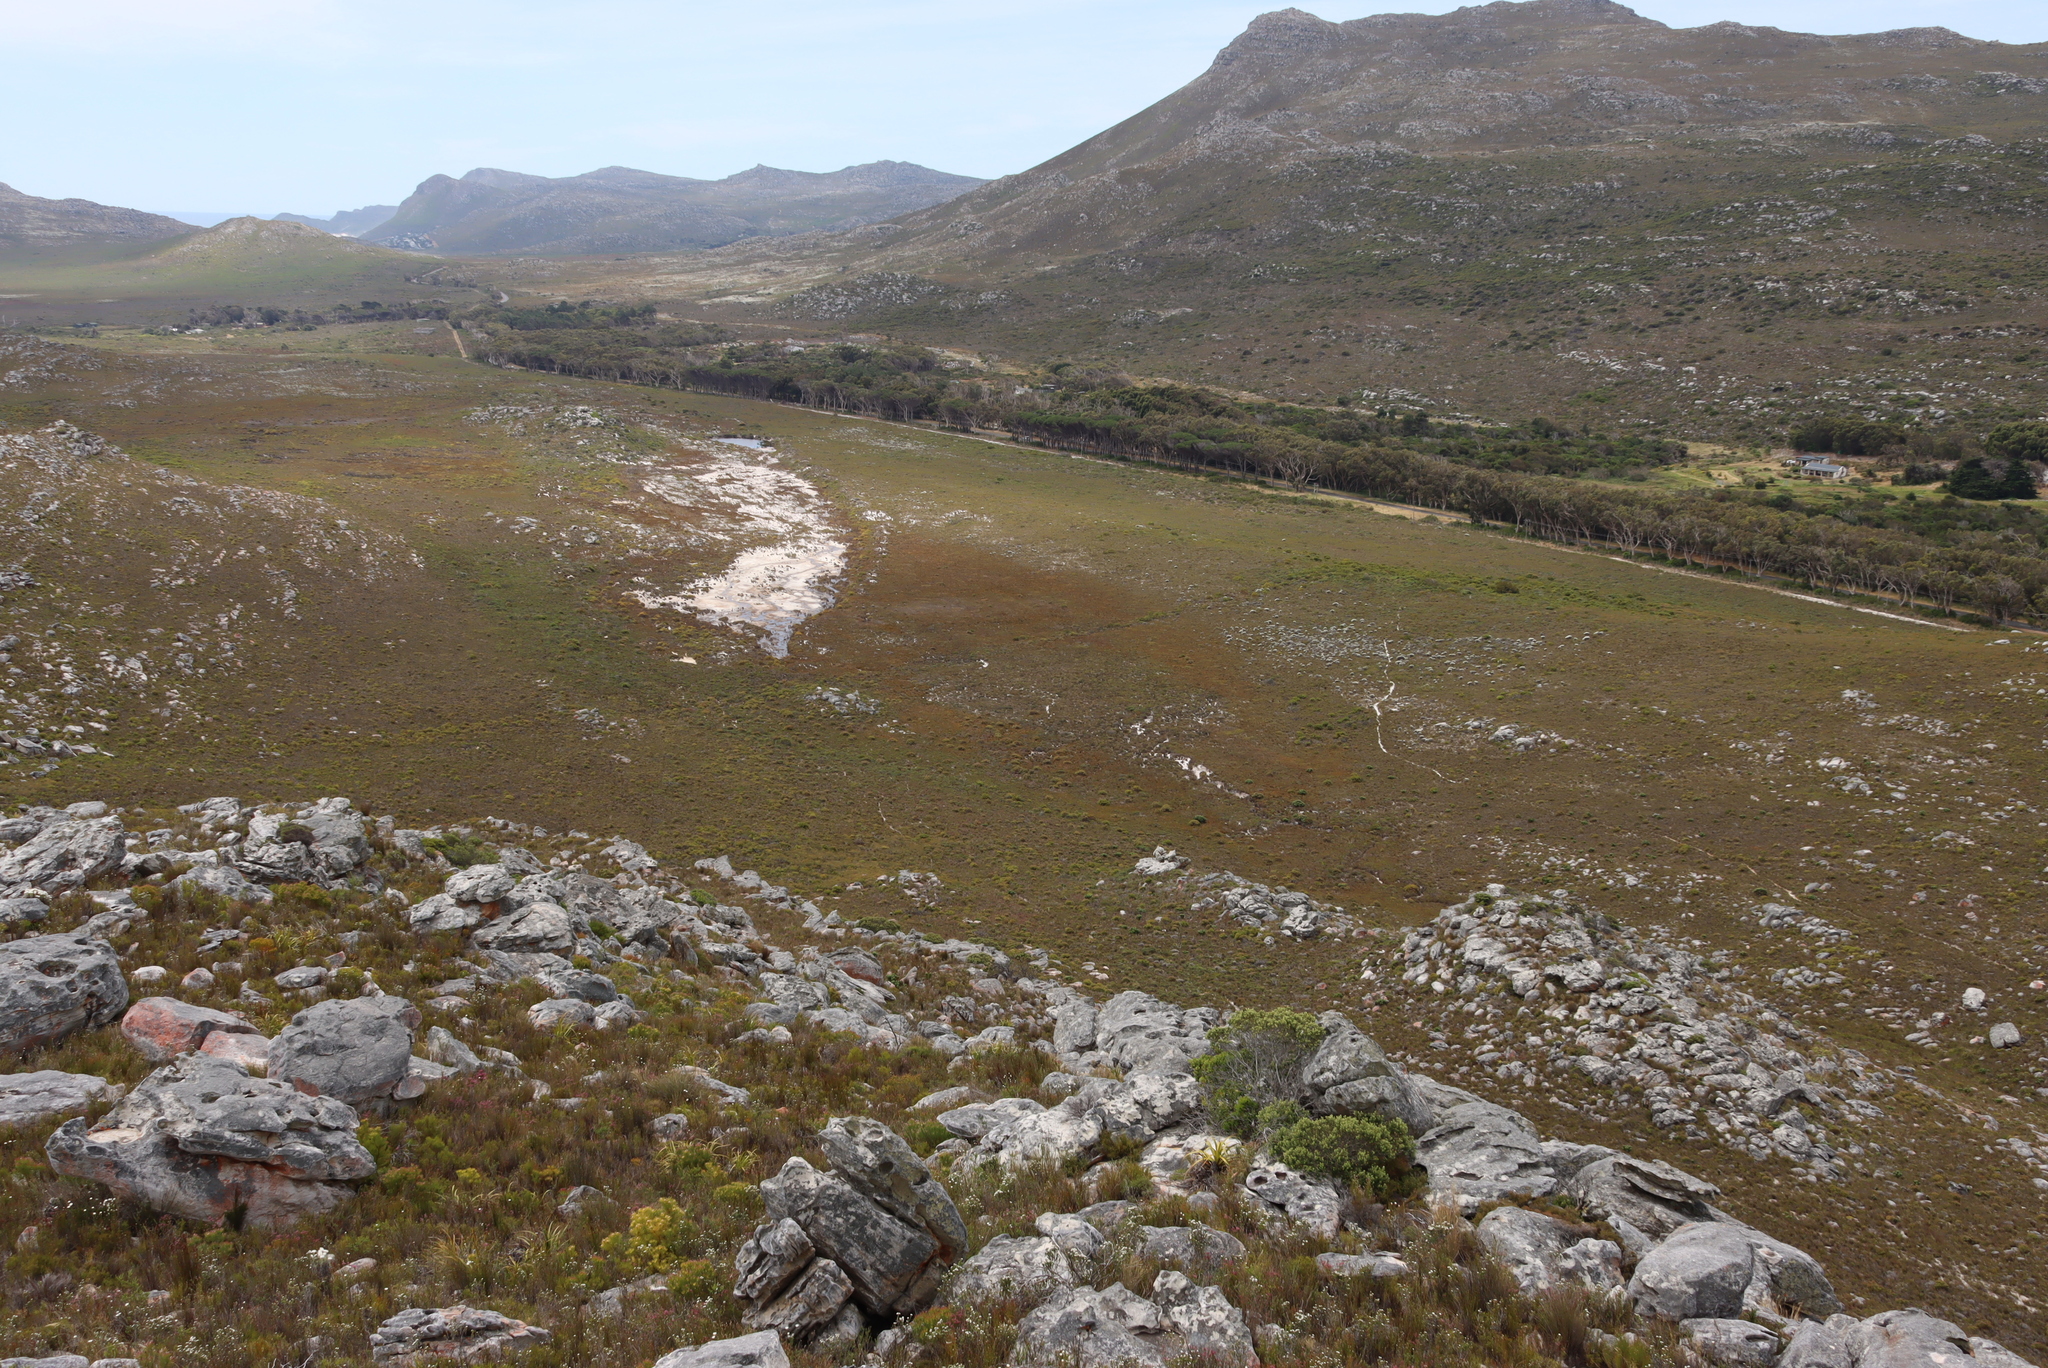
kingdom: Plantae
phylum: Tracheophyta
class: Magnoliopsida
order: Proteales
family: Proteaceae
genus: Leucadendron
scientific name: Leucadendron laureolum
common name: Golden sunshinebush
